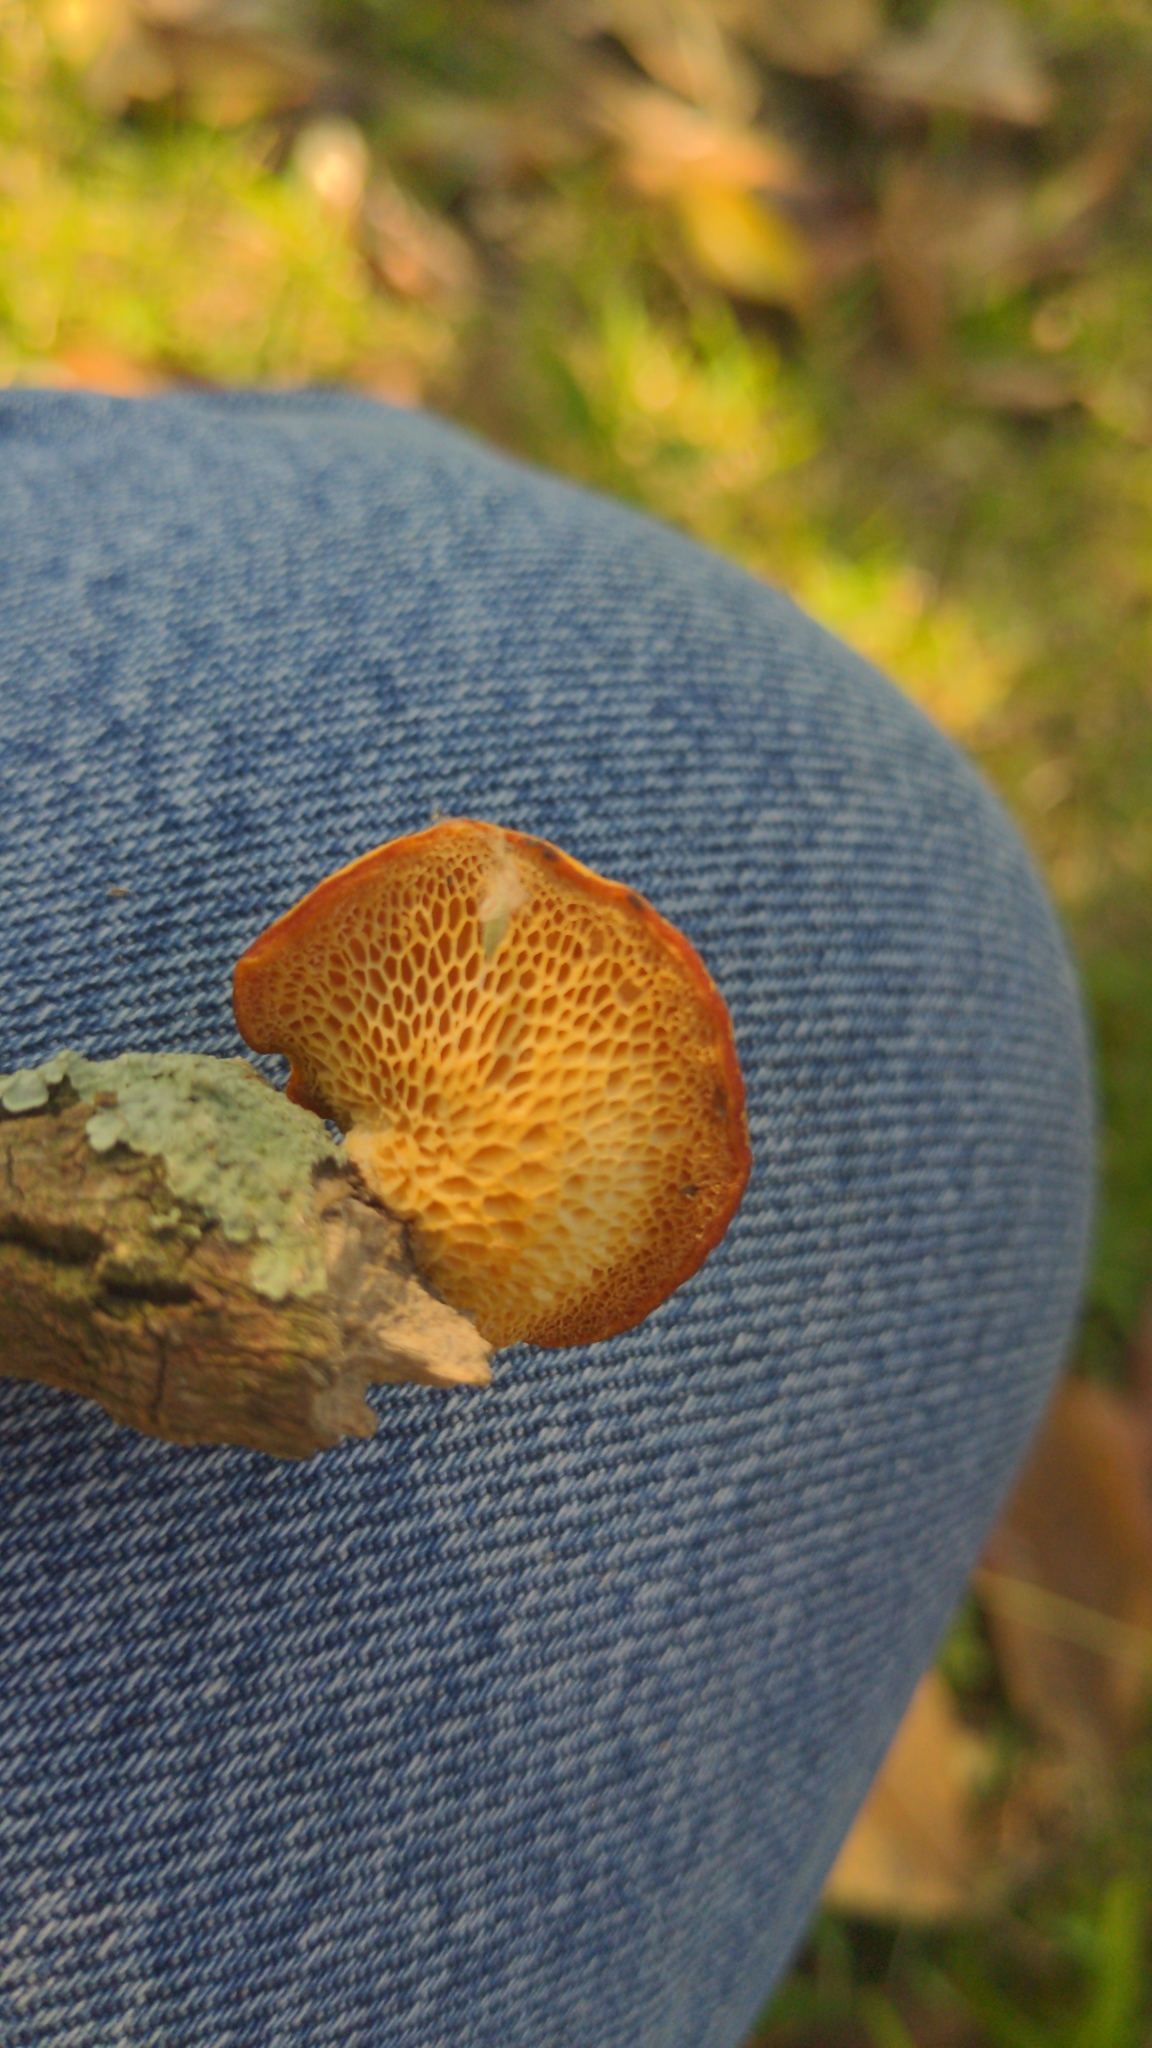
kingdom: Fungi
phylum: Basidiomycota
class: Agaricomycetes
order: Polyporales
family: Polyporaceae
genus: Neofavolus
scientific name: Neofavolus alveolaris
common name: Hexagonal-pored polypore
